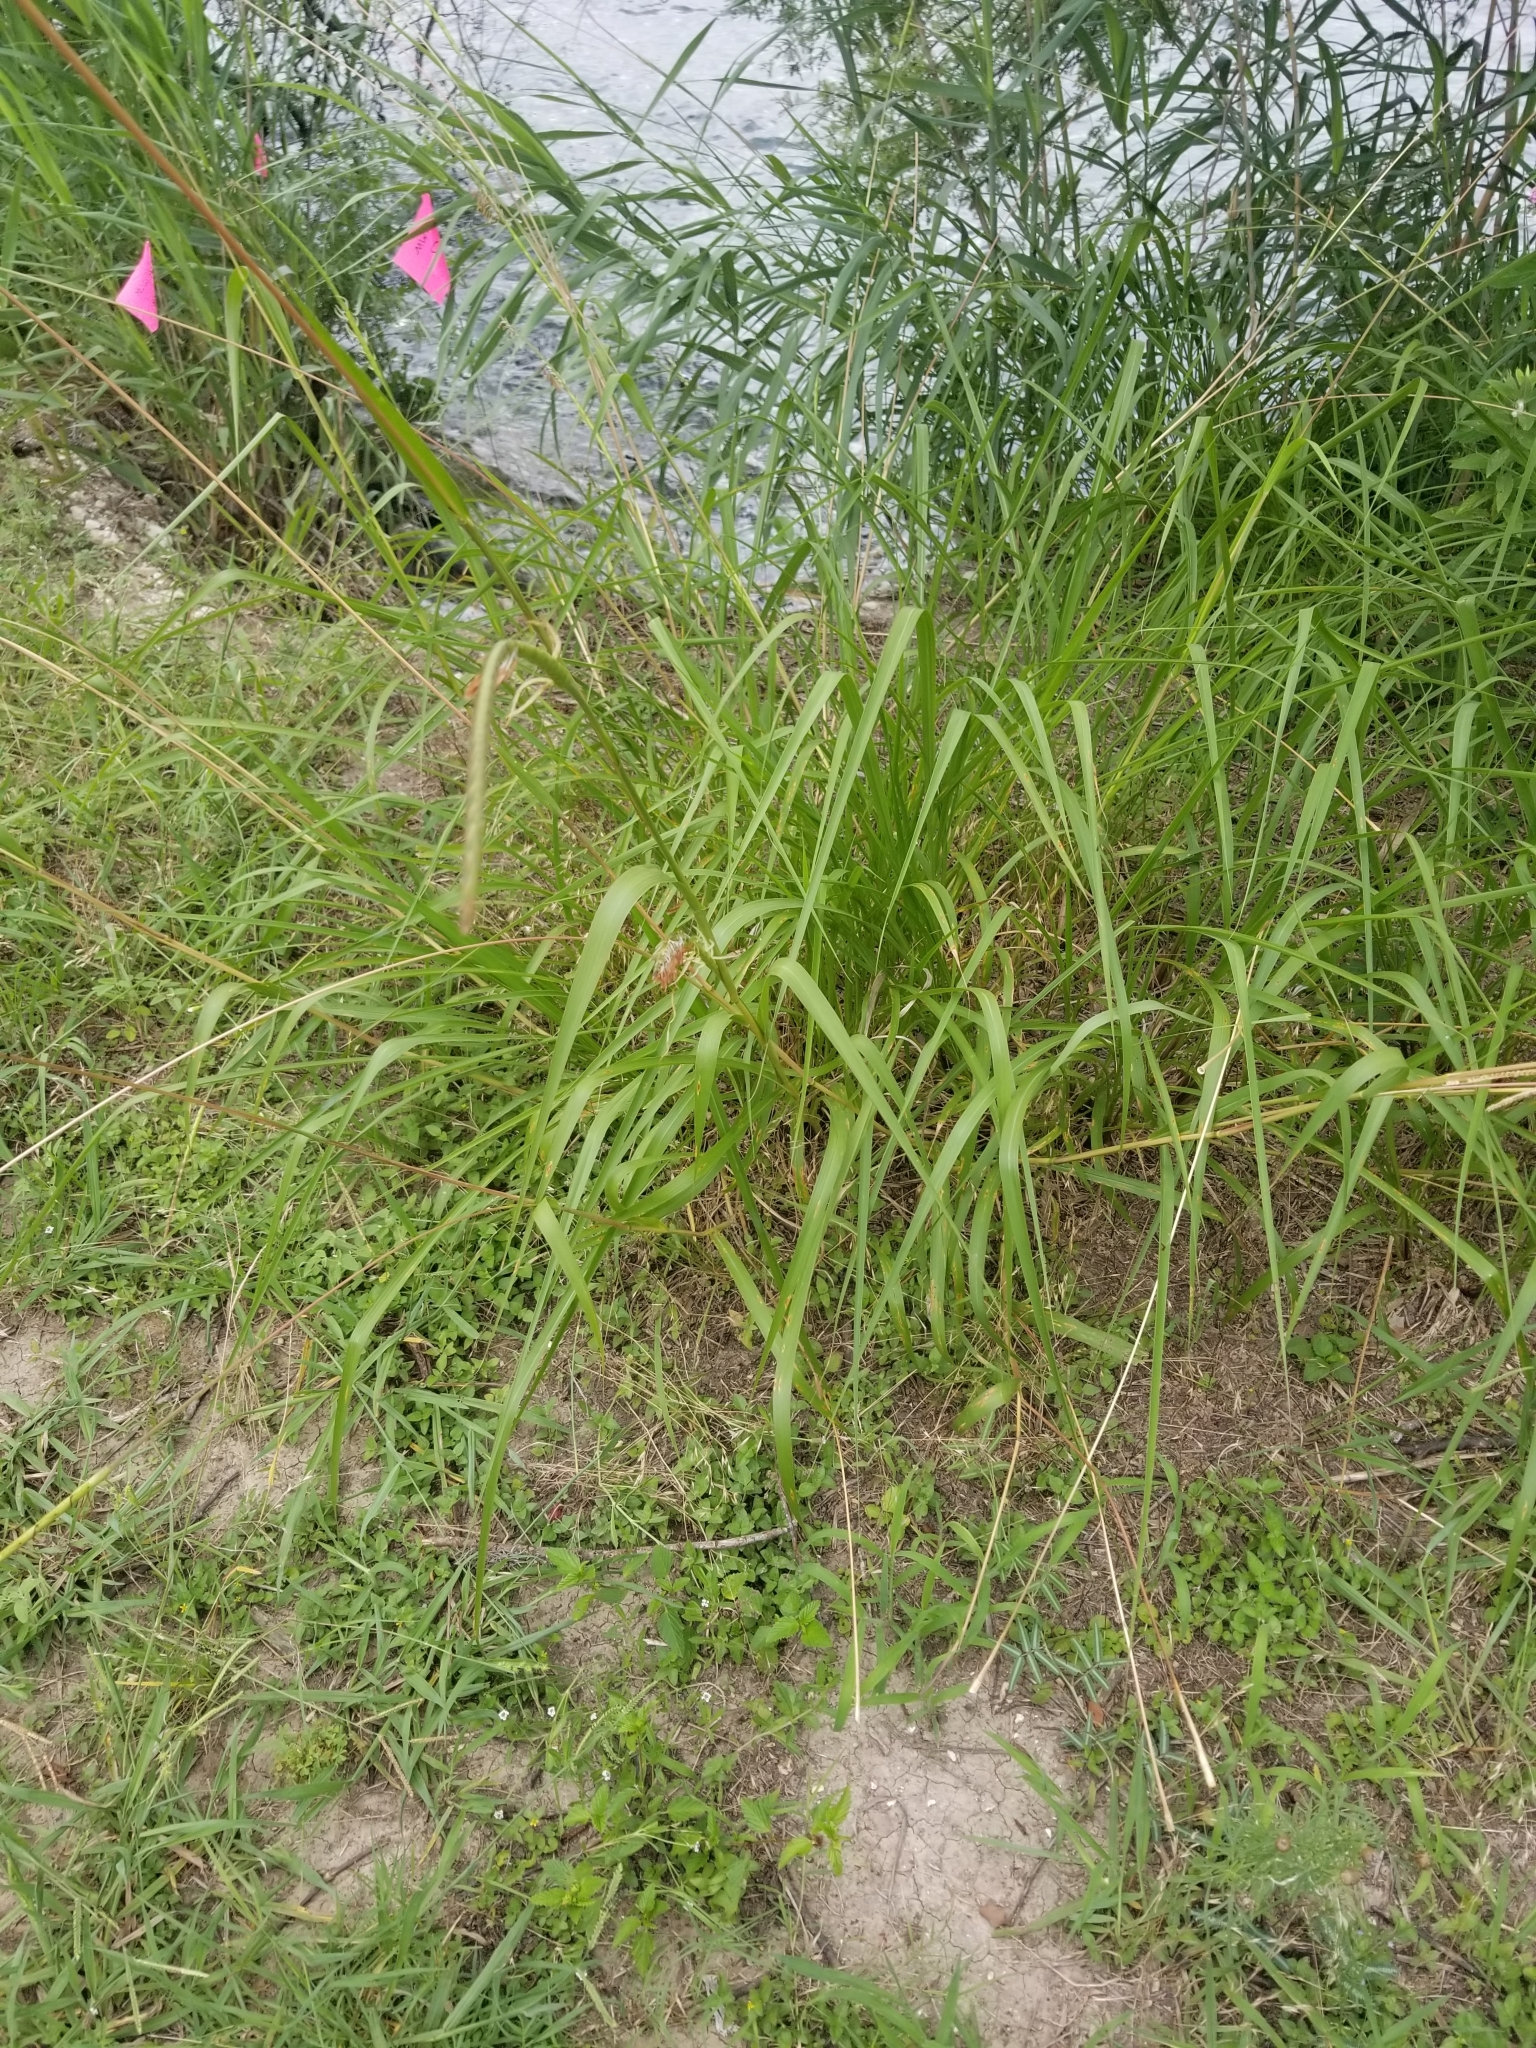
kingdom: Plantae
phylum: Tracheophyta
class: Liliopsida
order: Poales
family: Poaceae
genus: Tripsacum
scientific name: Tripsacum dactyloides
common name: Buffalo-grass
